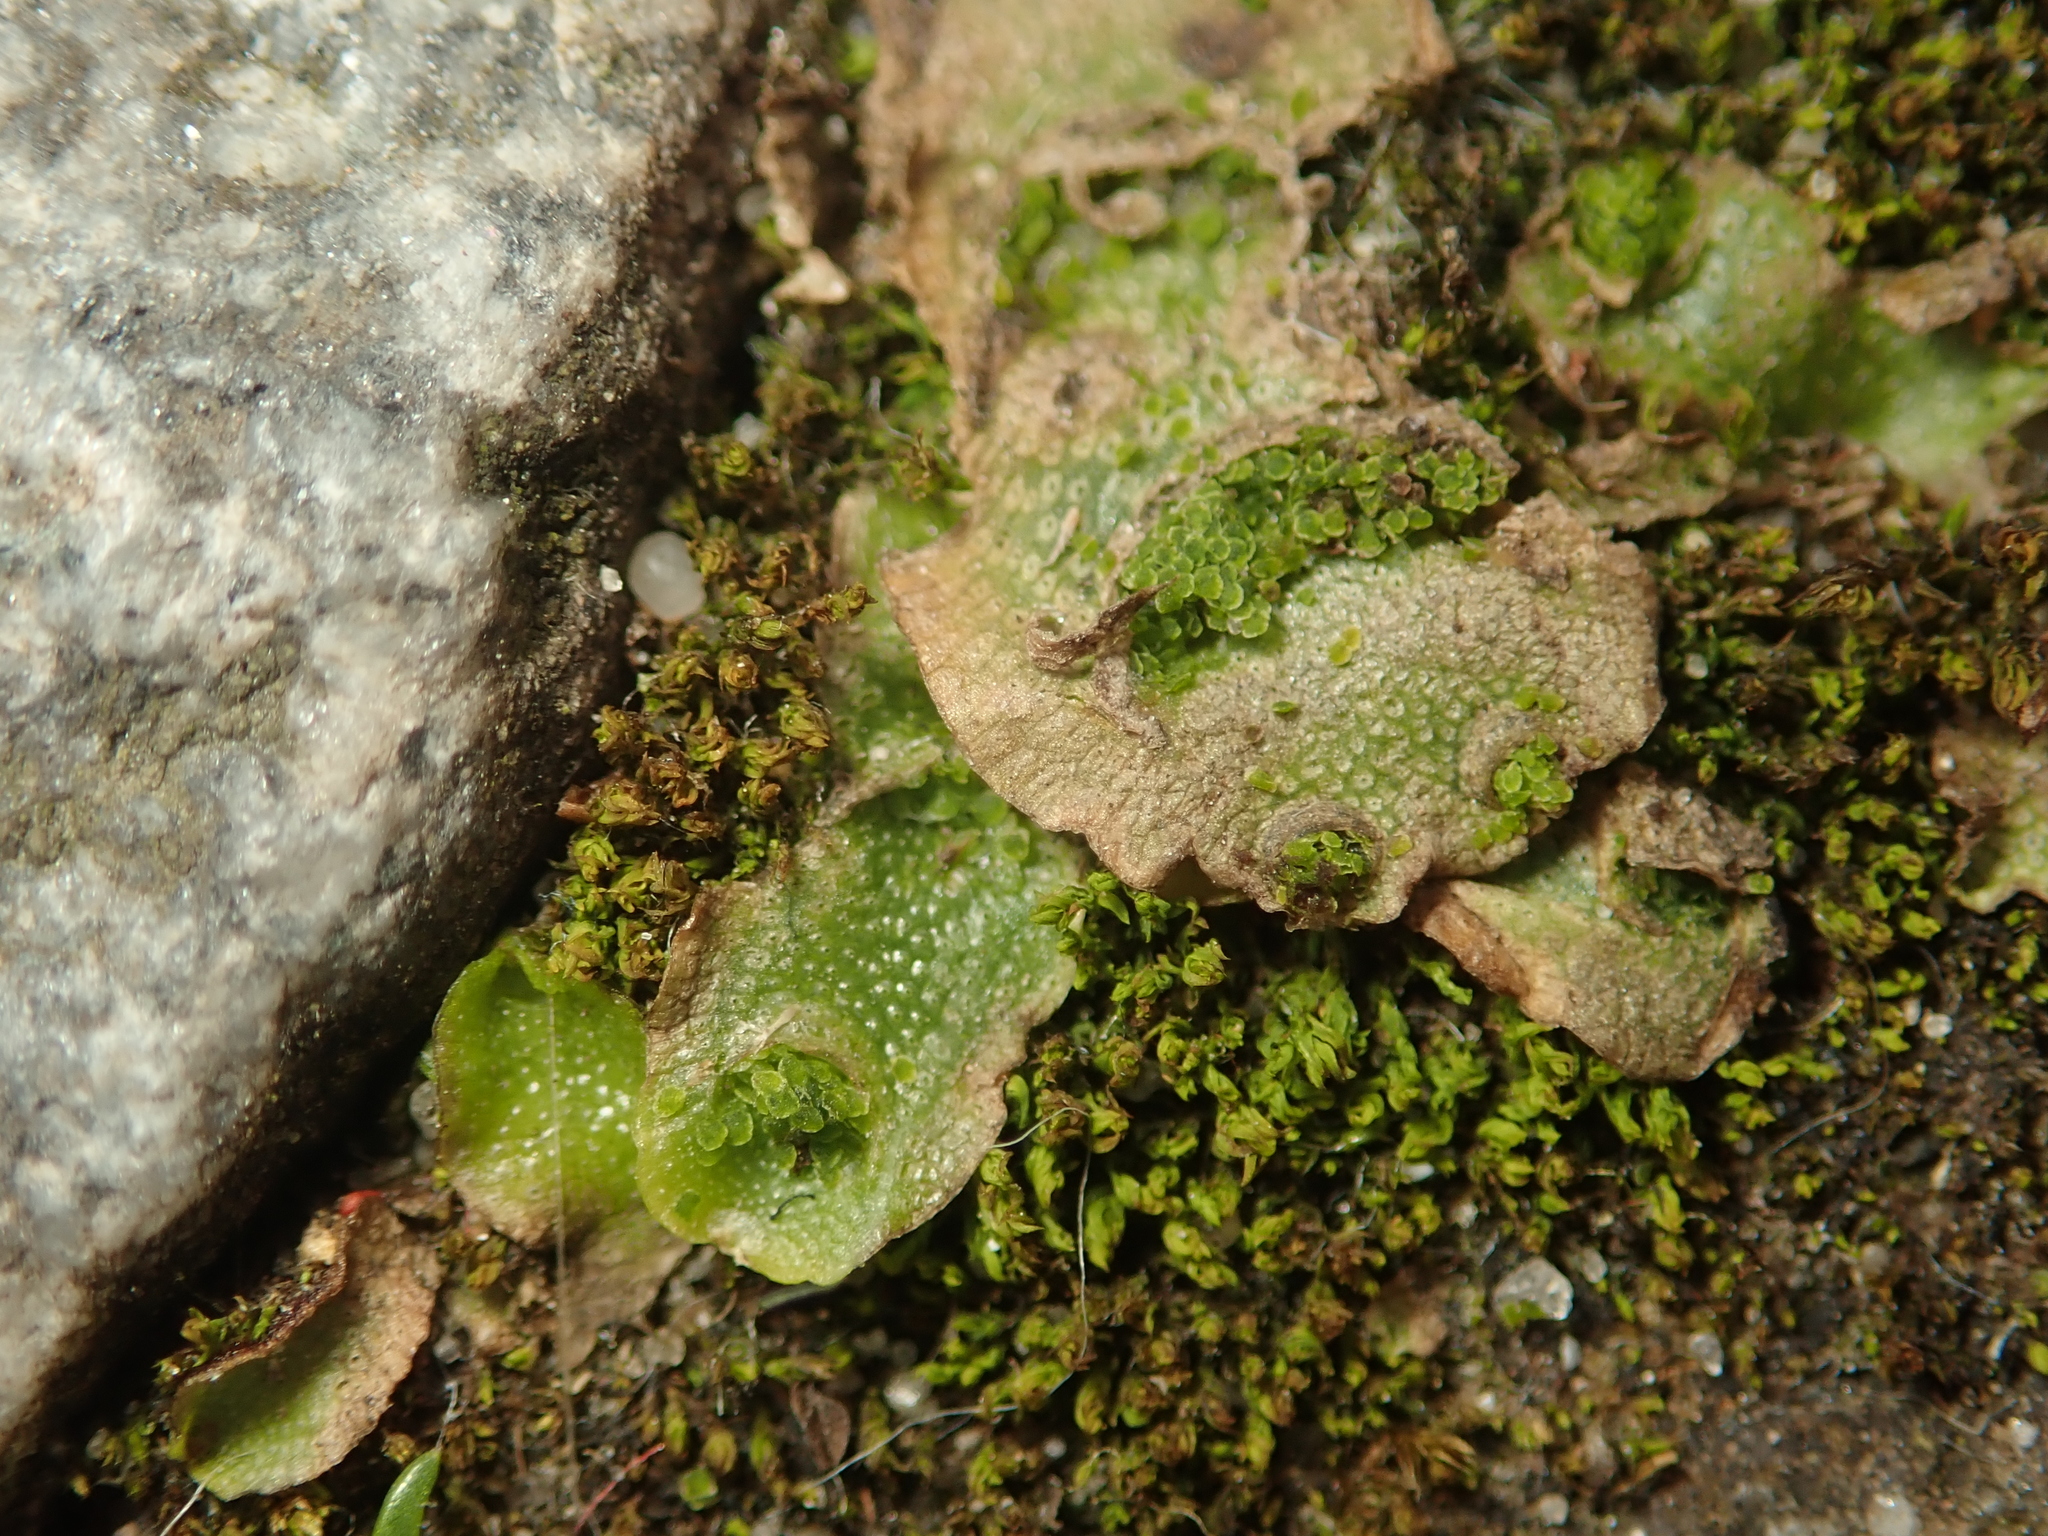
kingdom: Plantae
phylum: Marchantiophyta
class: Marchantiopsida
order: Lunulariales
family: Lunulariaceae
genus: Lunularia
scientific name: Lunularia cruciata
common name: Crescent-cup liverwort
